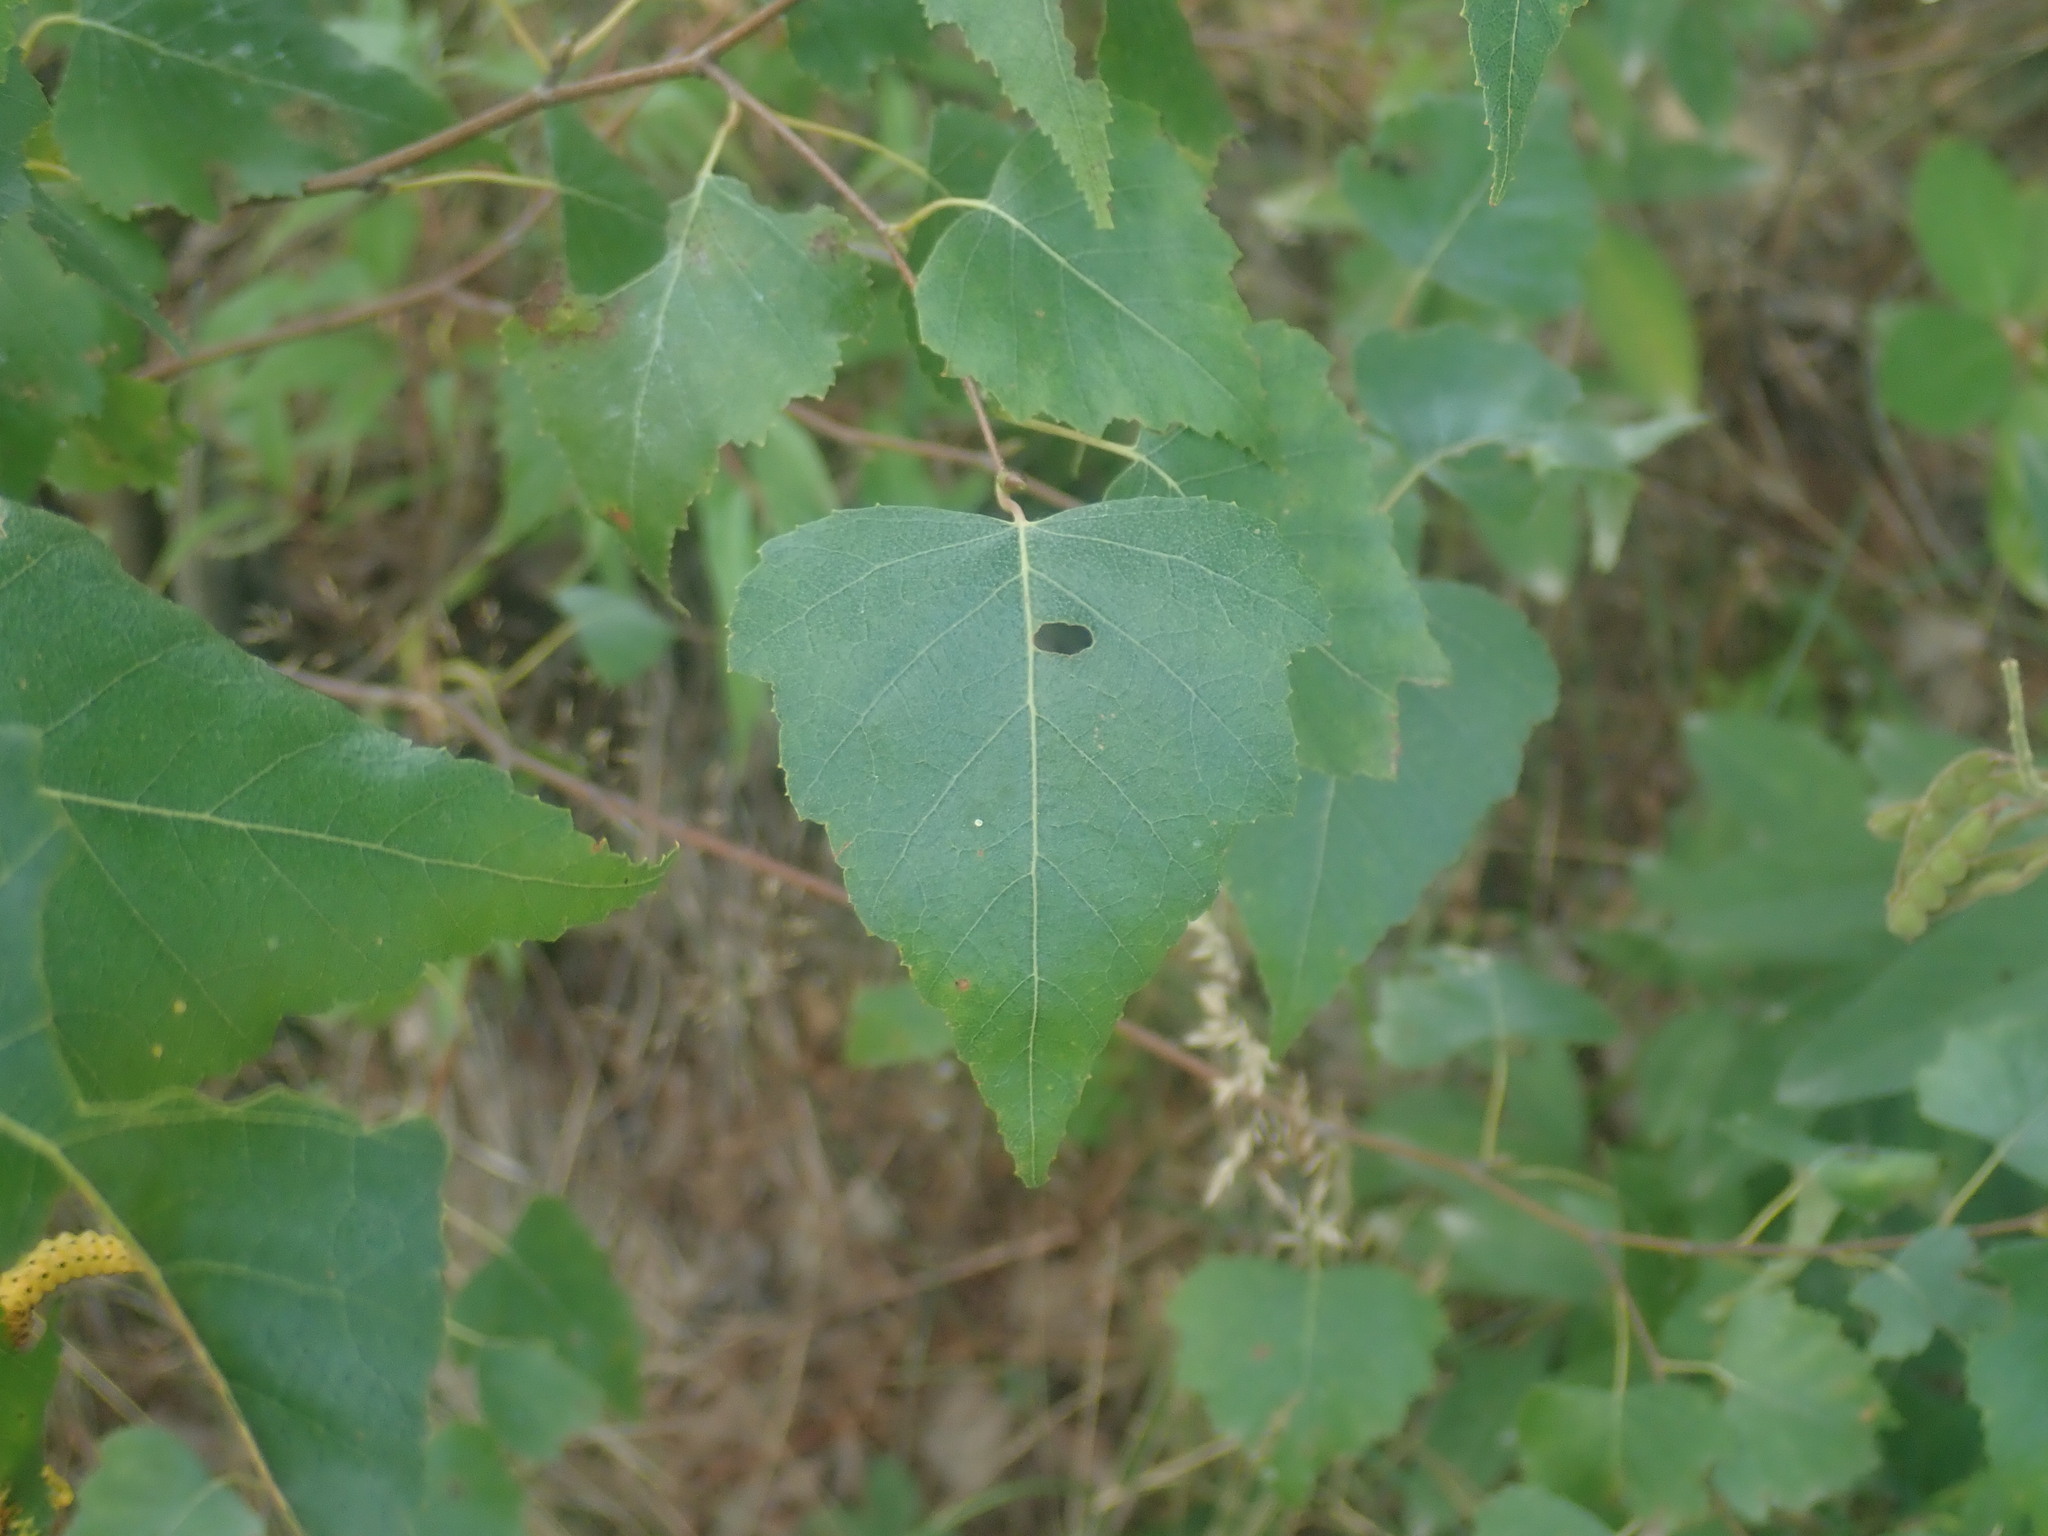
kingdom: Plantae
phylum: Tracheophyta
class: Magnoliopsida
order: Fagales
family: Betulaceae
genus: Betula
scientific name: Betula populifolia
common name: Fire birch
